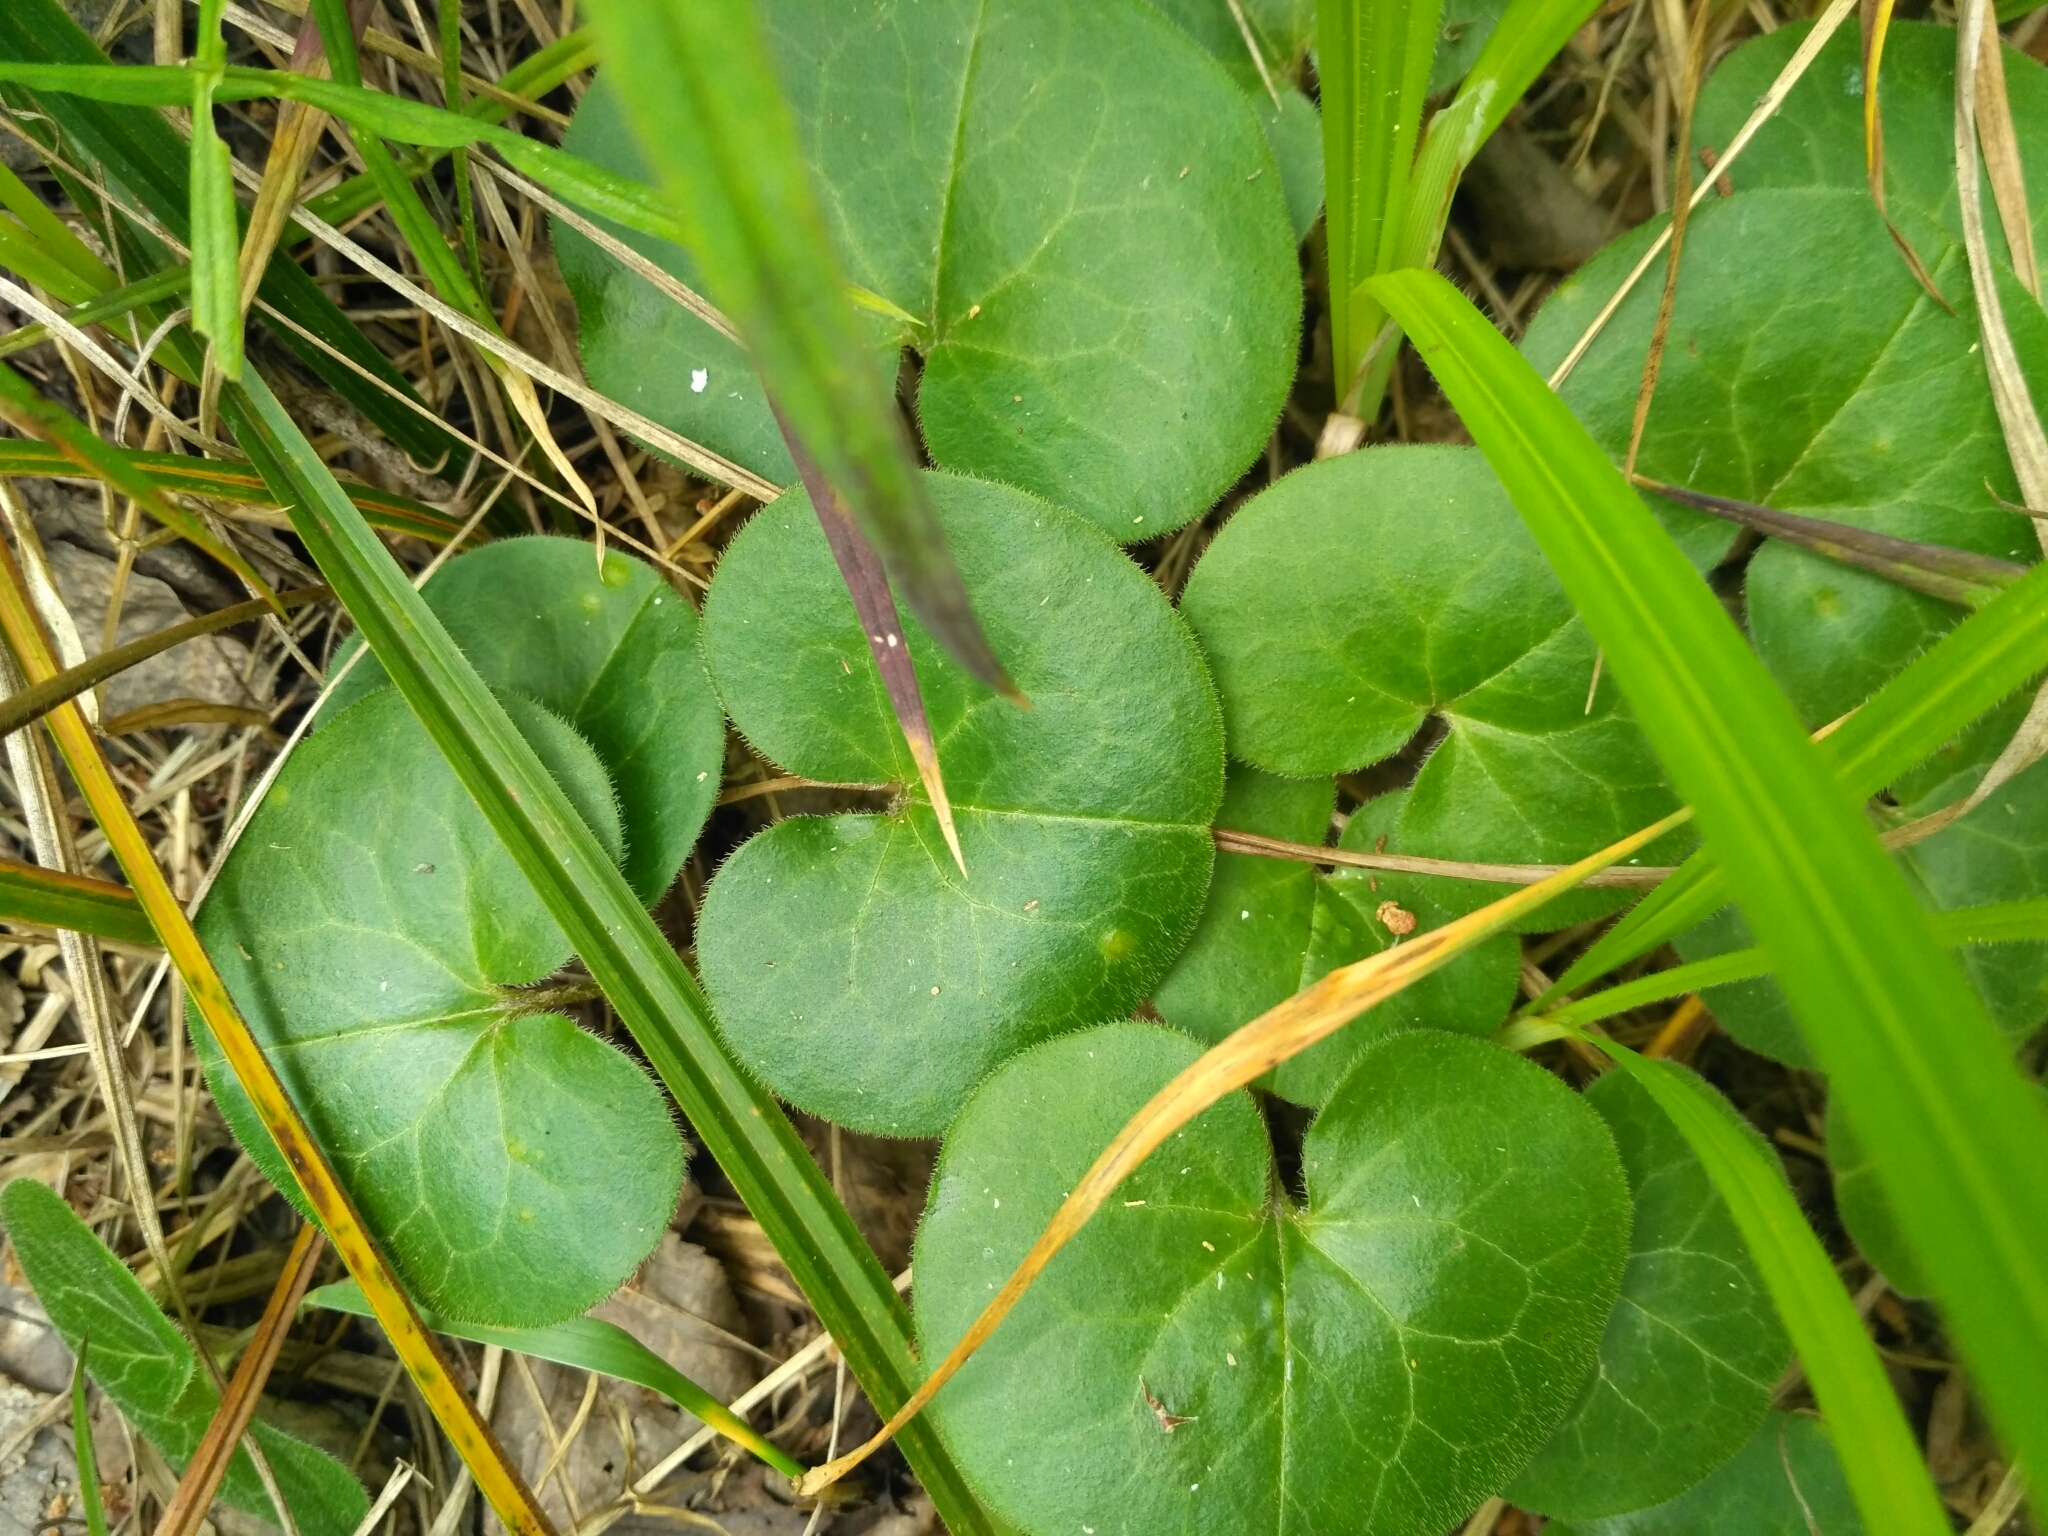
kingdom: Plantae
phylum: Tracheophyta
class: Magnoliopsida
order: Piperales
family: Aristolochiaceae
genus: Asarum
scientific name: Asarum europaeum
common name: Asarabacca
